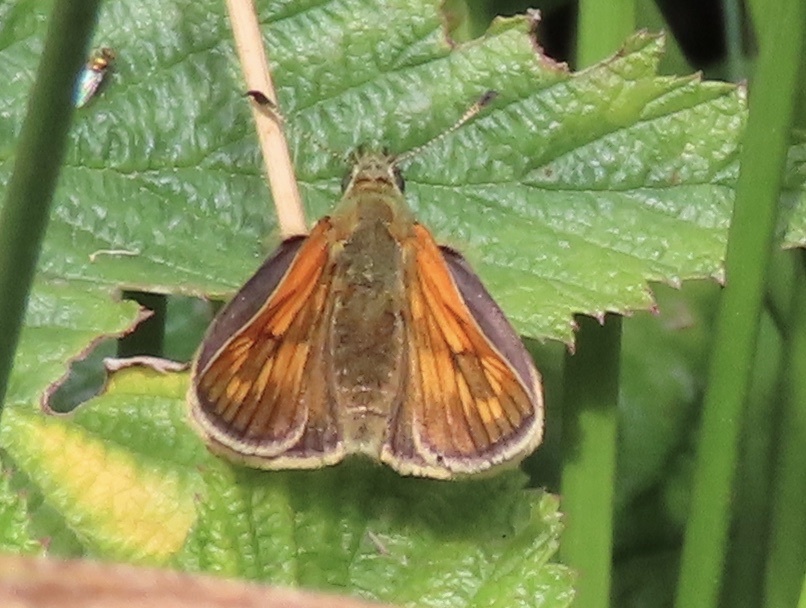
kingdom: Animalia
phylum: Arthropoda
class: Insecta
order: Lepidoptera
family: Hesperiidae
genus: Ochlodes
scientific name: Ochlodes venata
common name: Large skipper
